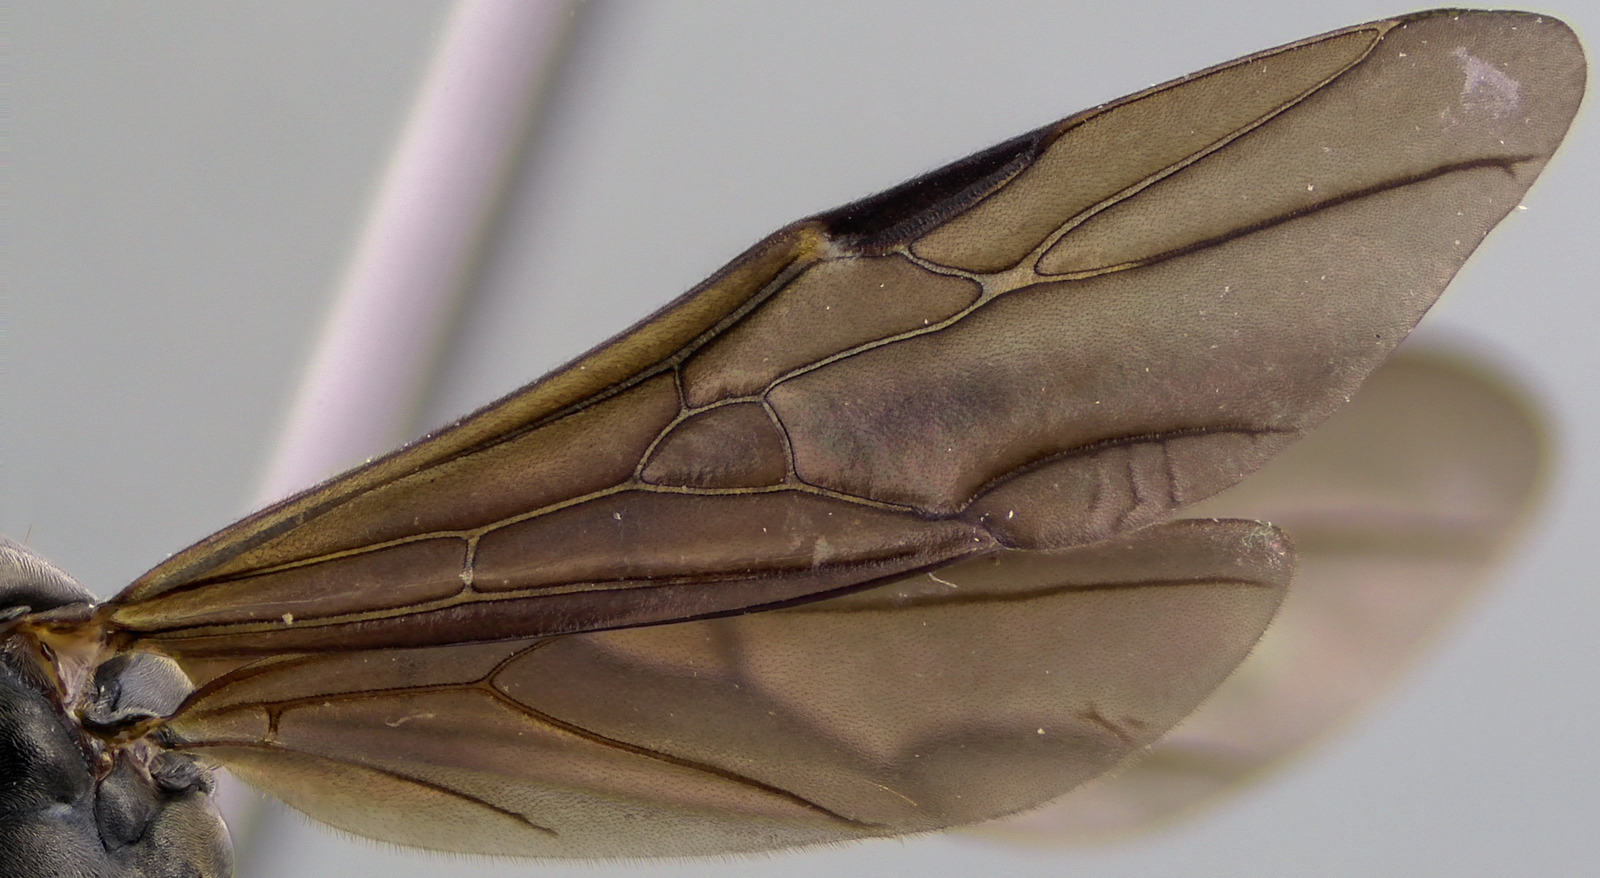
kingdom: Animalia
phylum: Arthropoda
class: Insecta
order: Hymenoptera
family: Formicidae
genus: Formica
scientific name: Formica subsericea
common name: Silky field ant
